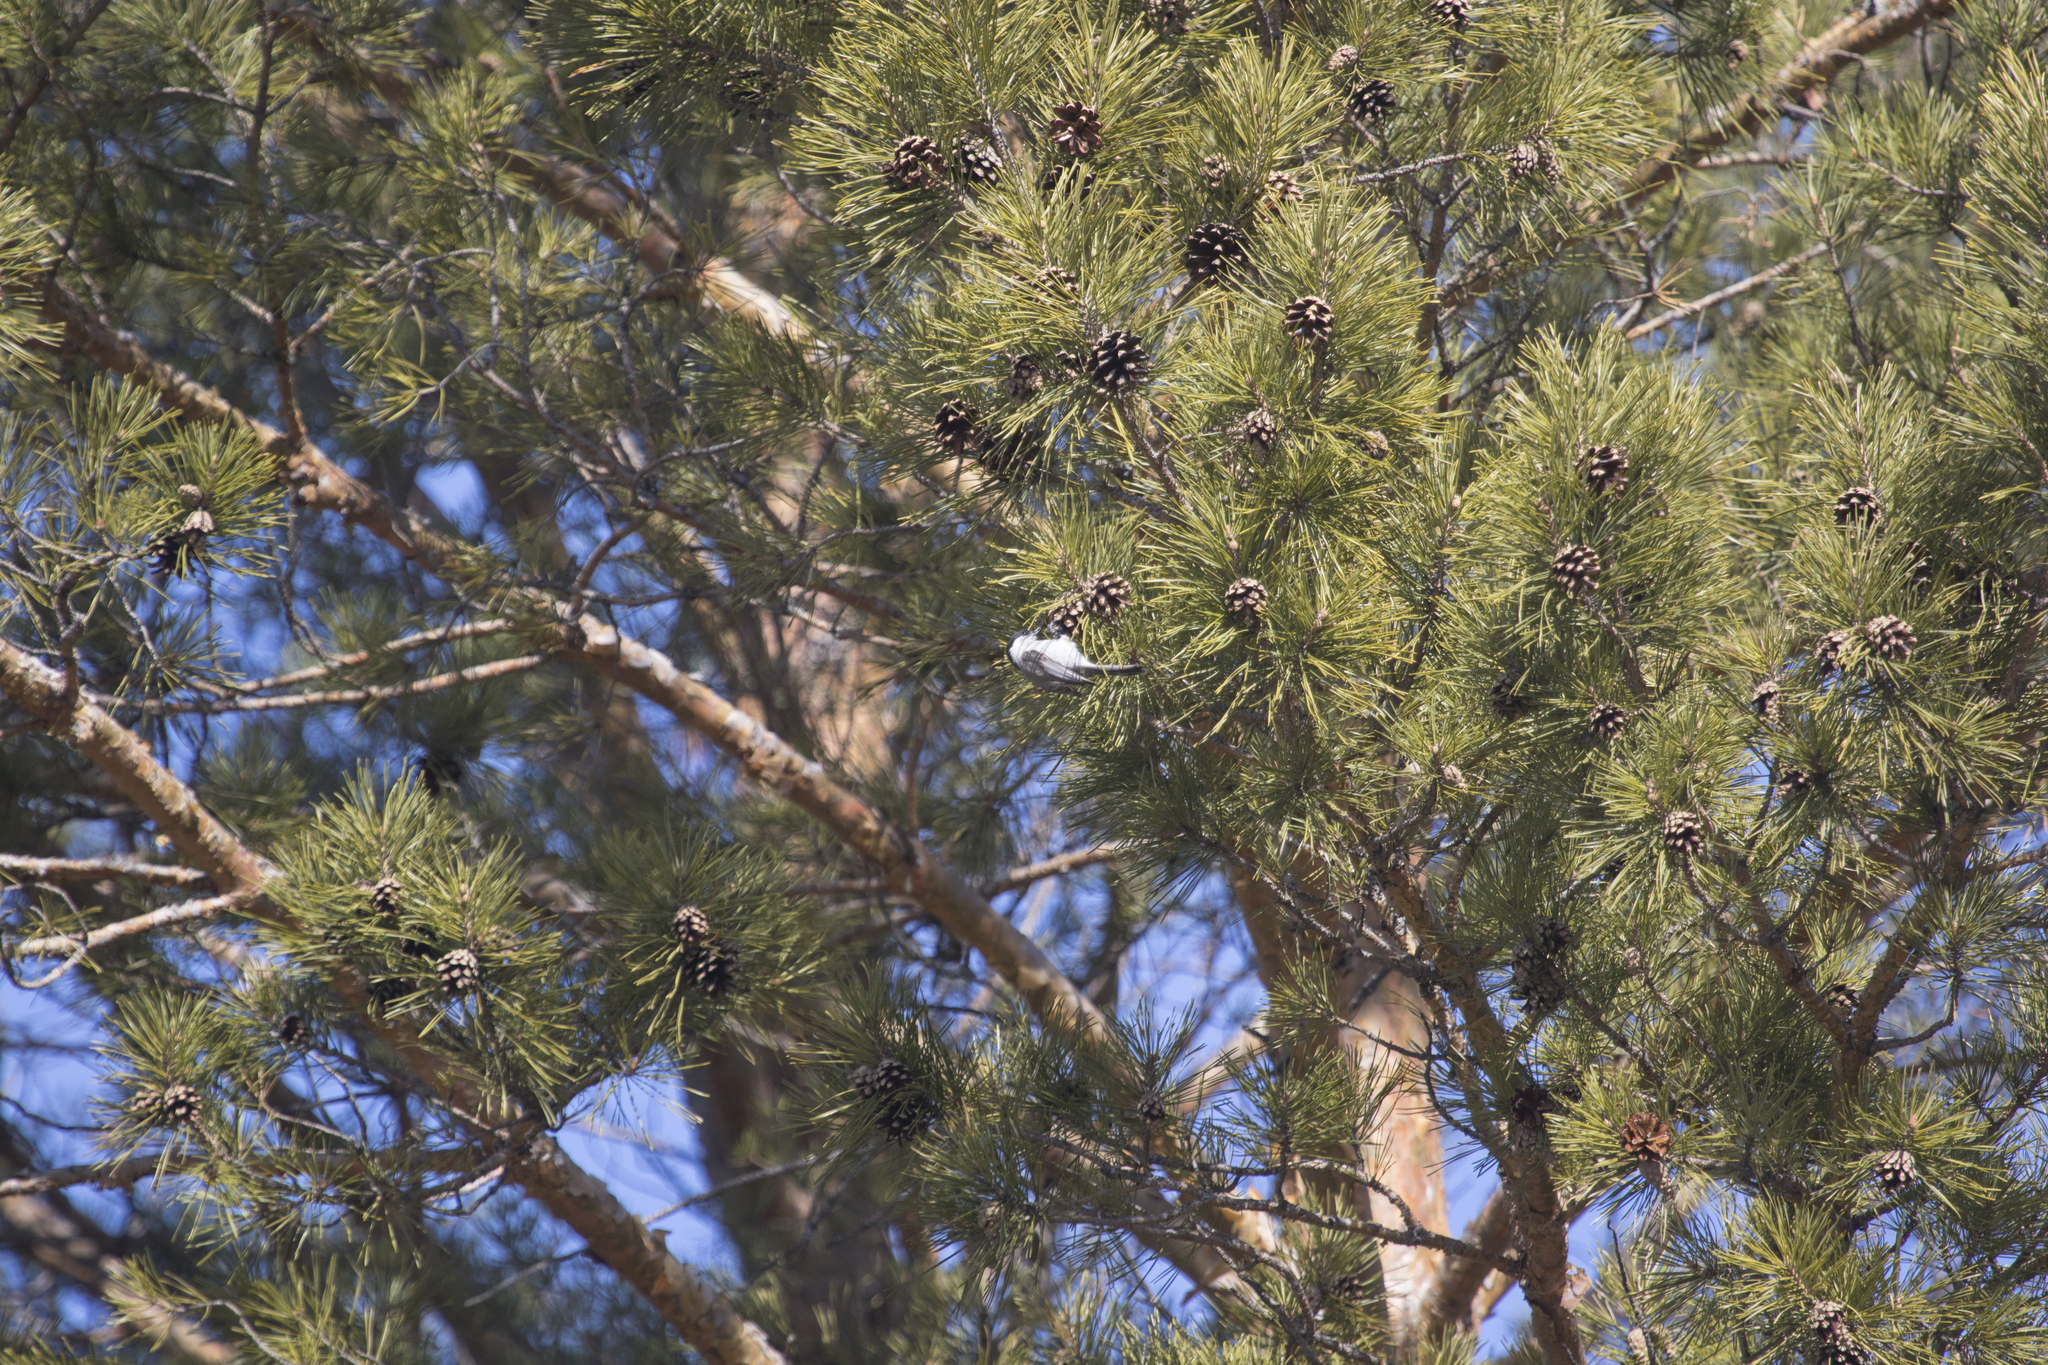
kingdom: Animalia
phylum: Chordata
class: Aves
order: Passeriformes
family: Paridae
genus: Poecile
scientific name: Poecile montanus
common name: Willow tit
